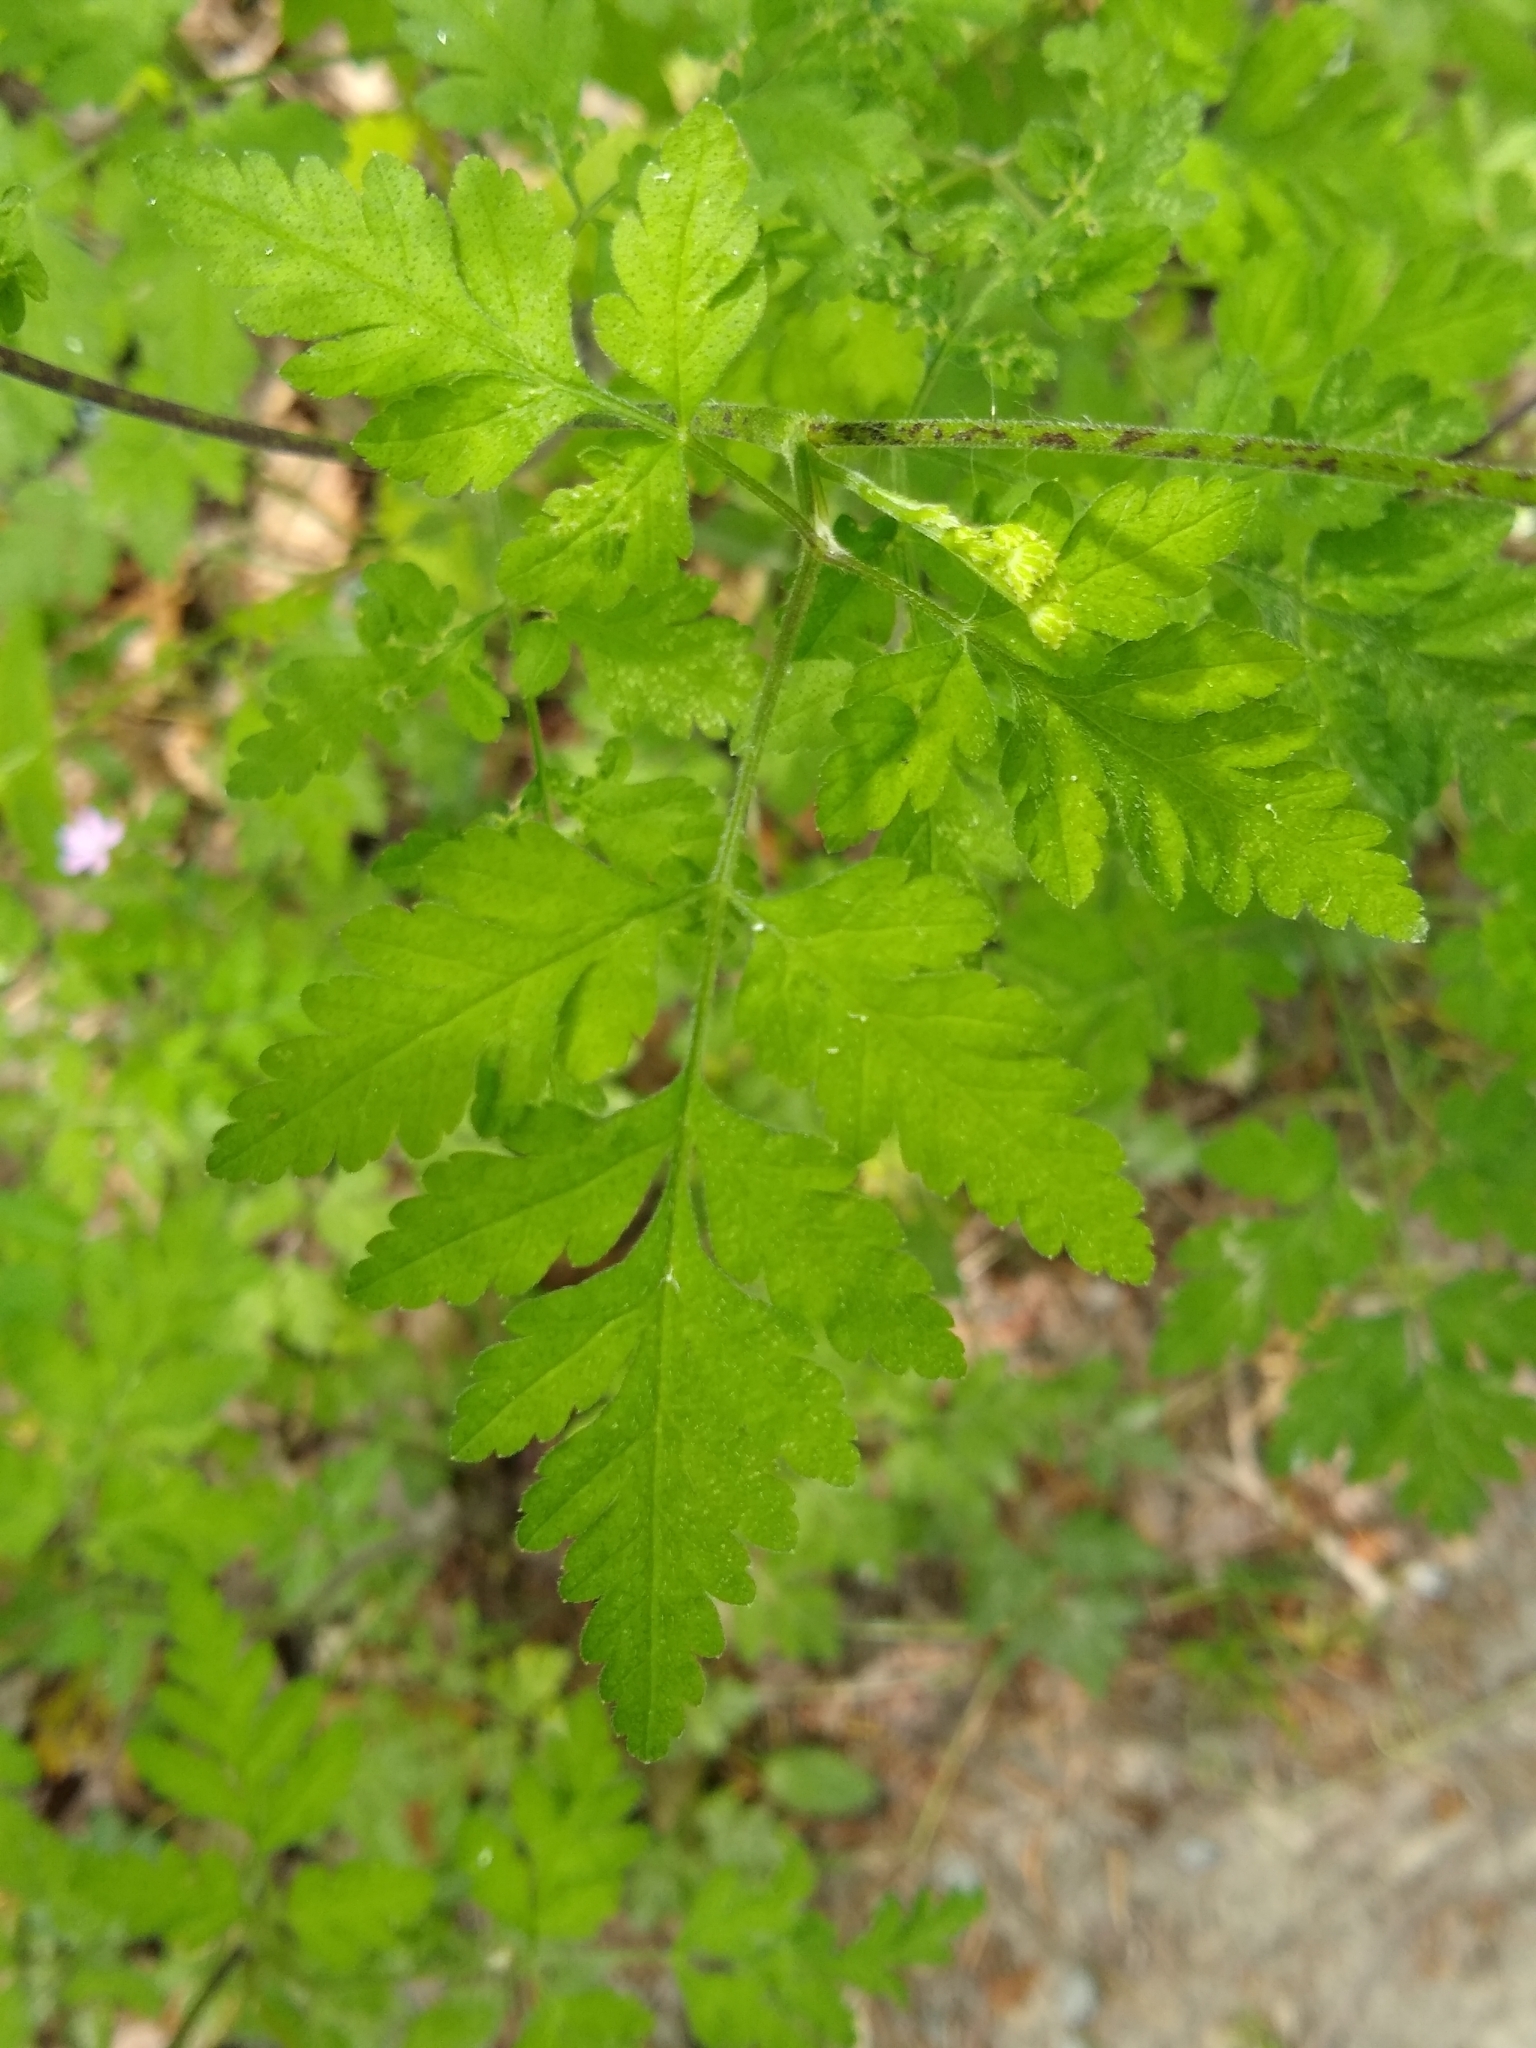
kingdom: Plantae
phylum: Tracheophyta
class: Magnoliopsida
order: Apiales
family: Apiaceae
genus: Chaerophyllum
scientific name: Chaerophyllum temulum
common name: Rough chervil
